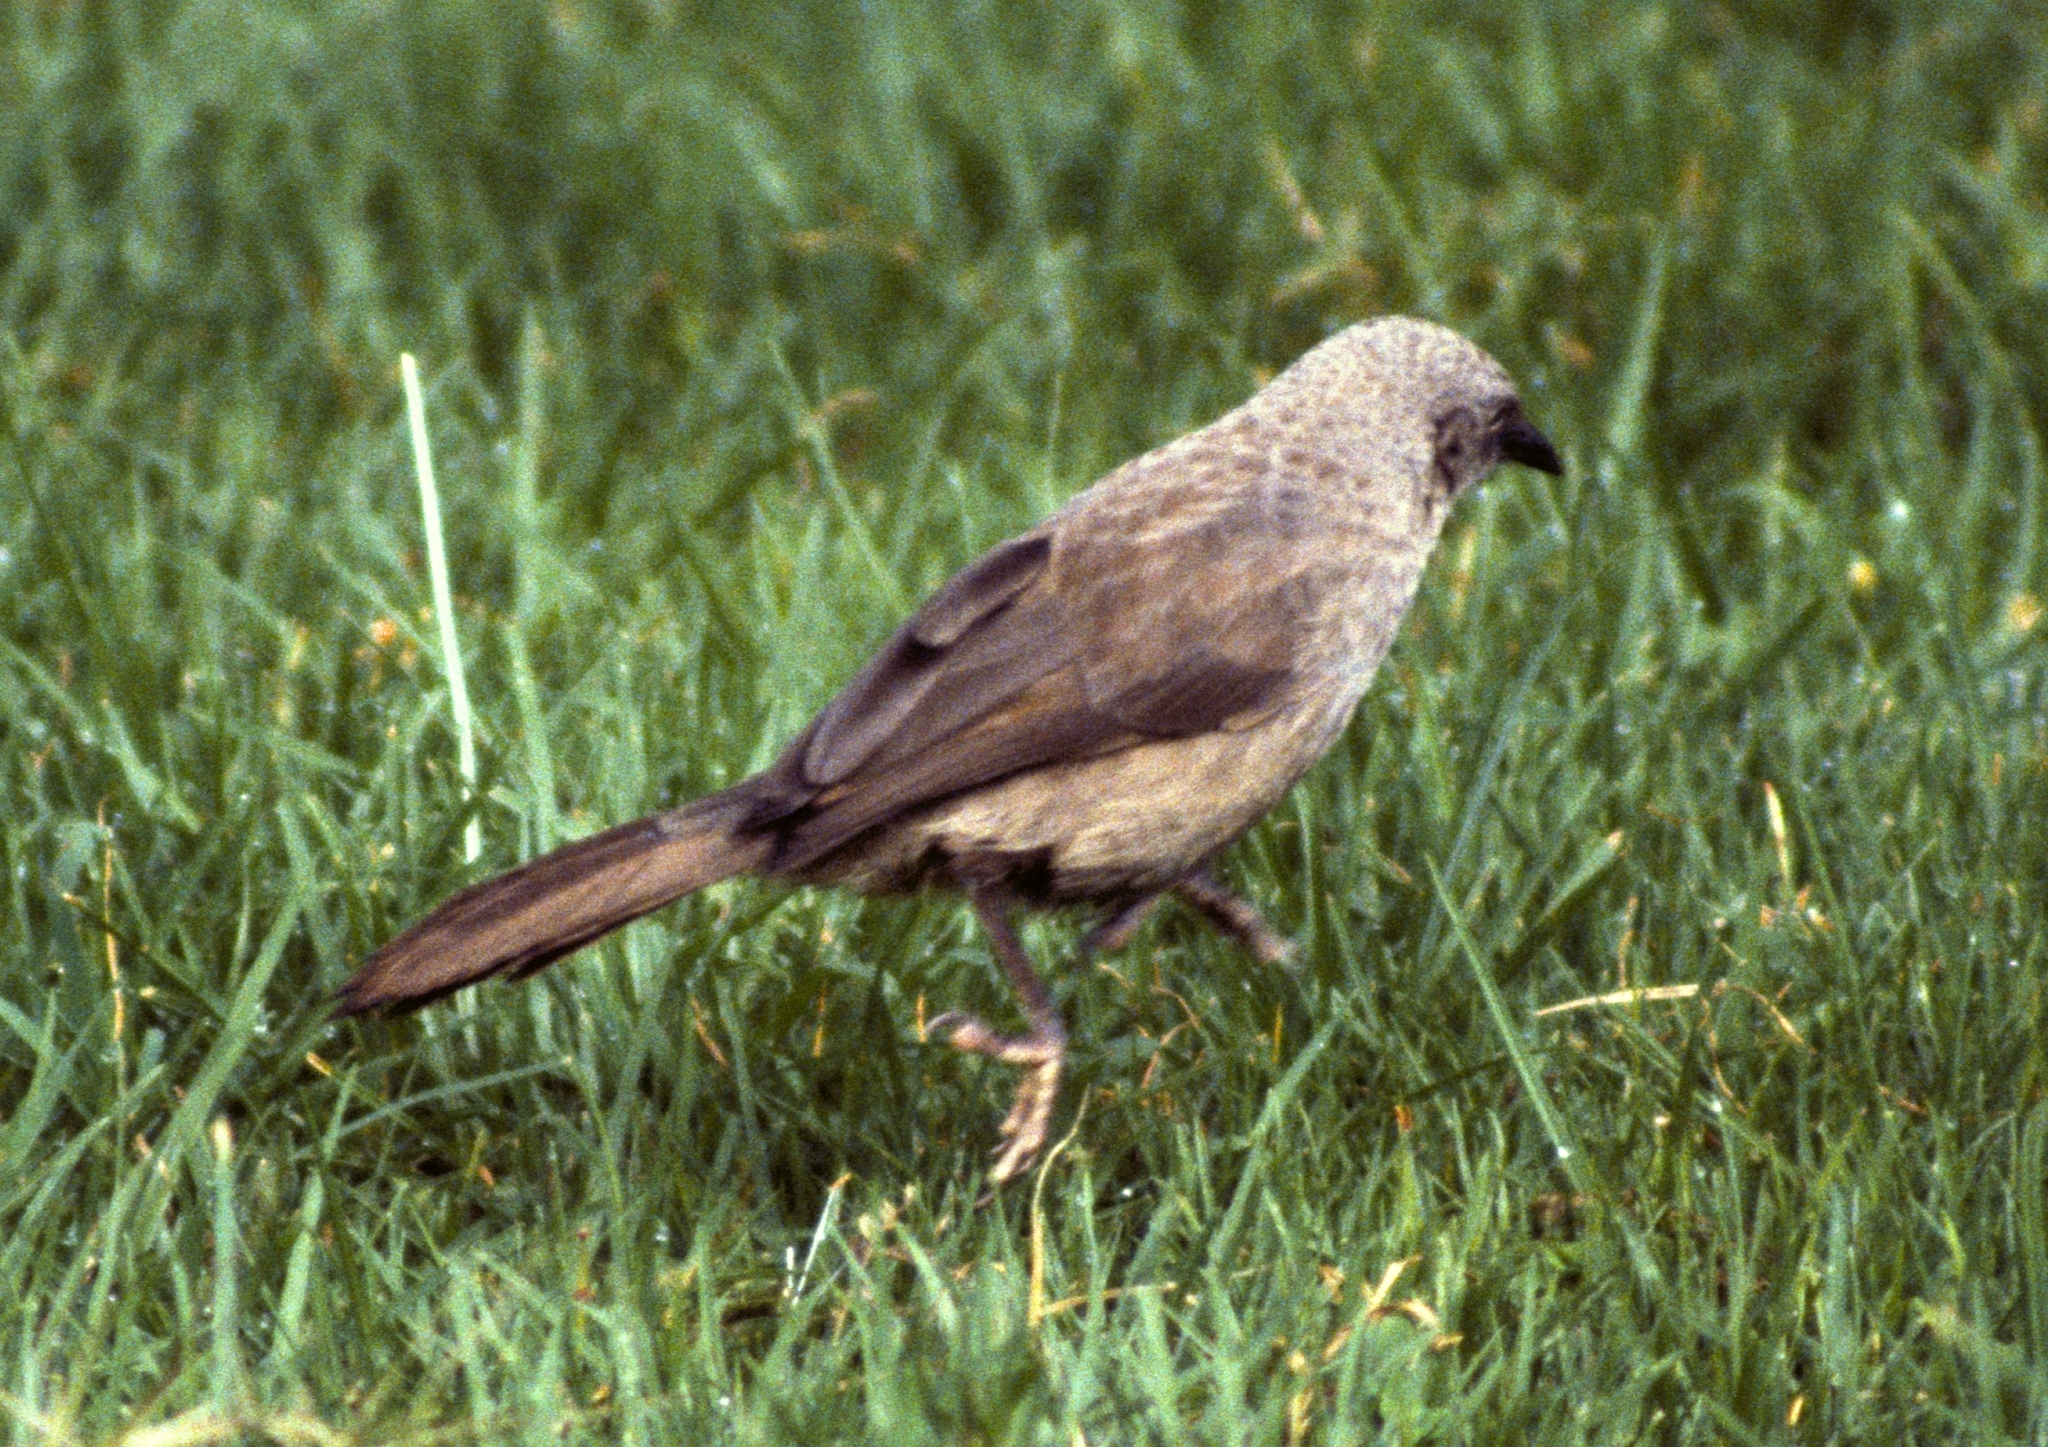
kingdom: Animalia
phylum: Chordata
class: Aves
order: Passeriformes
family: Leiothrichidae
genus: Turdoides
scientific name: Turdoides sharpei
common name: Black-lored babbler
